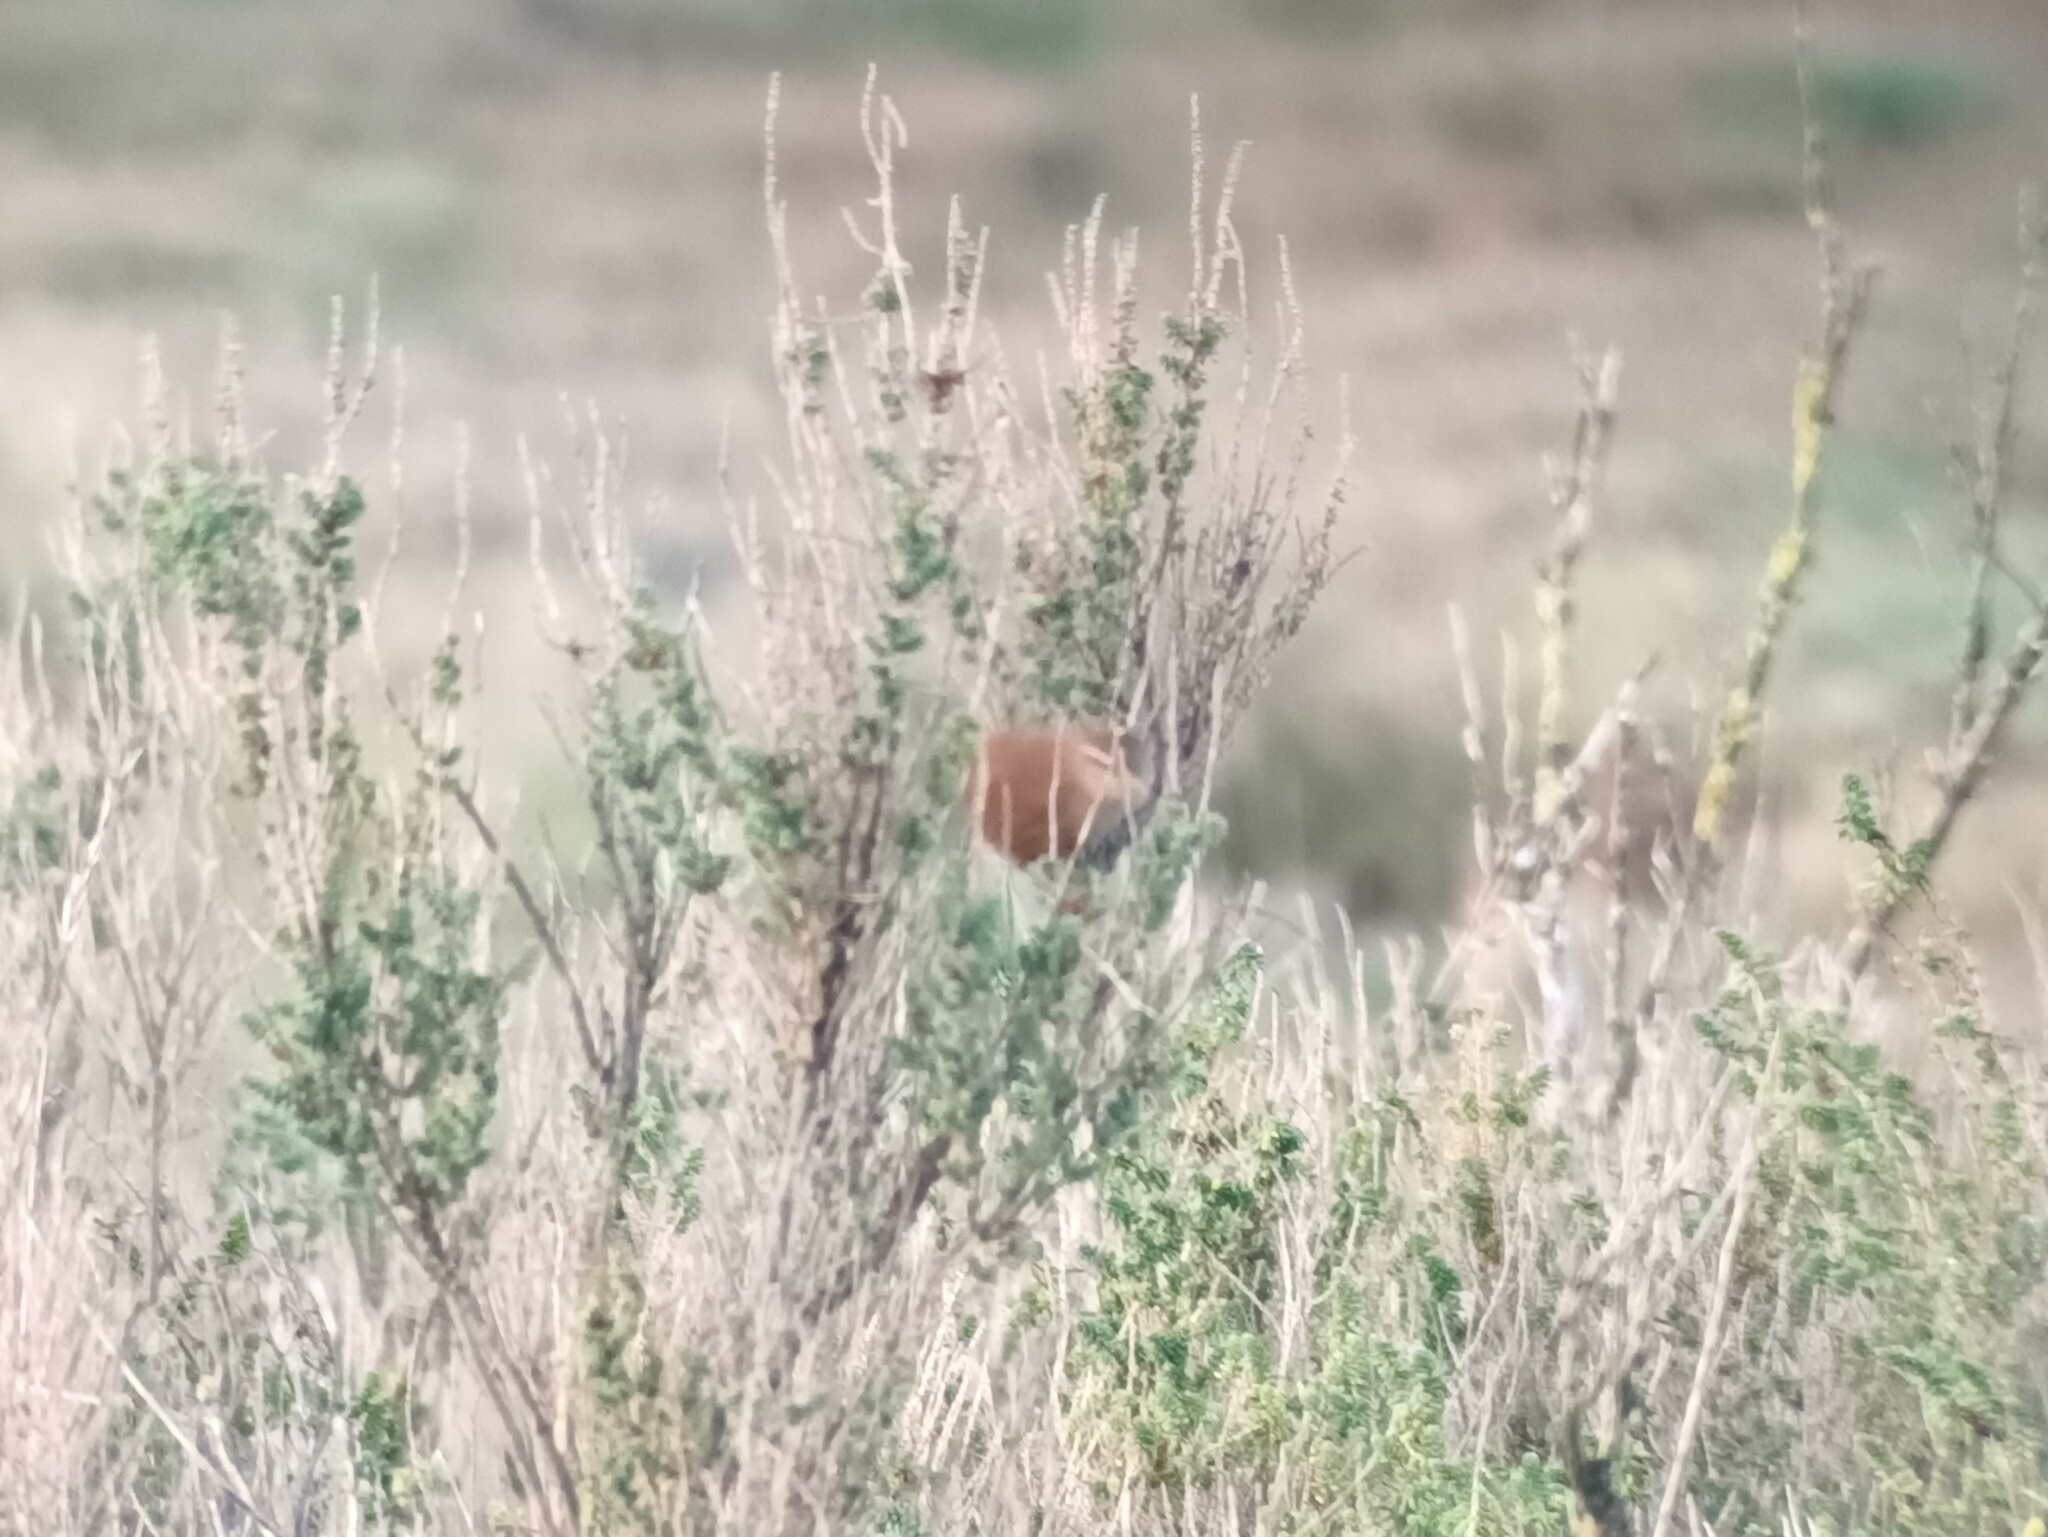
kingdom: Animalia
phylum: Chordata
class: Aves
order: Passeriformes
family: Troglodytidae
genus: Troglodytes
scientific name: Troglodytes troglodytes
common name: Eurasian wren
